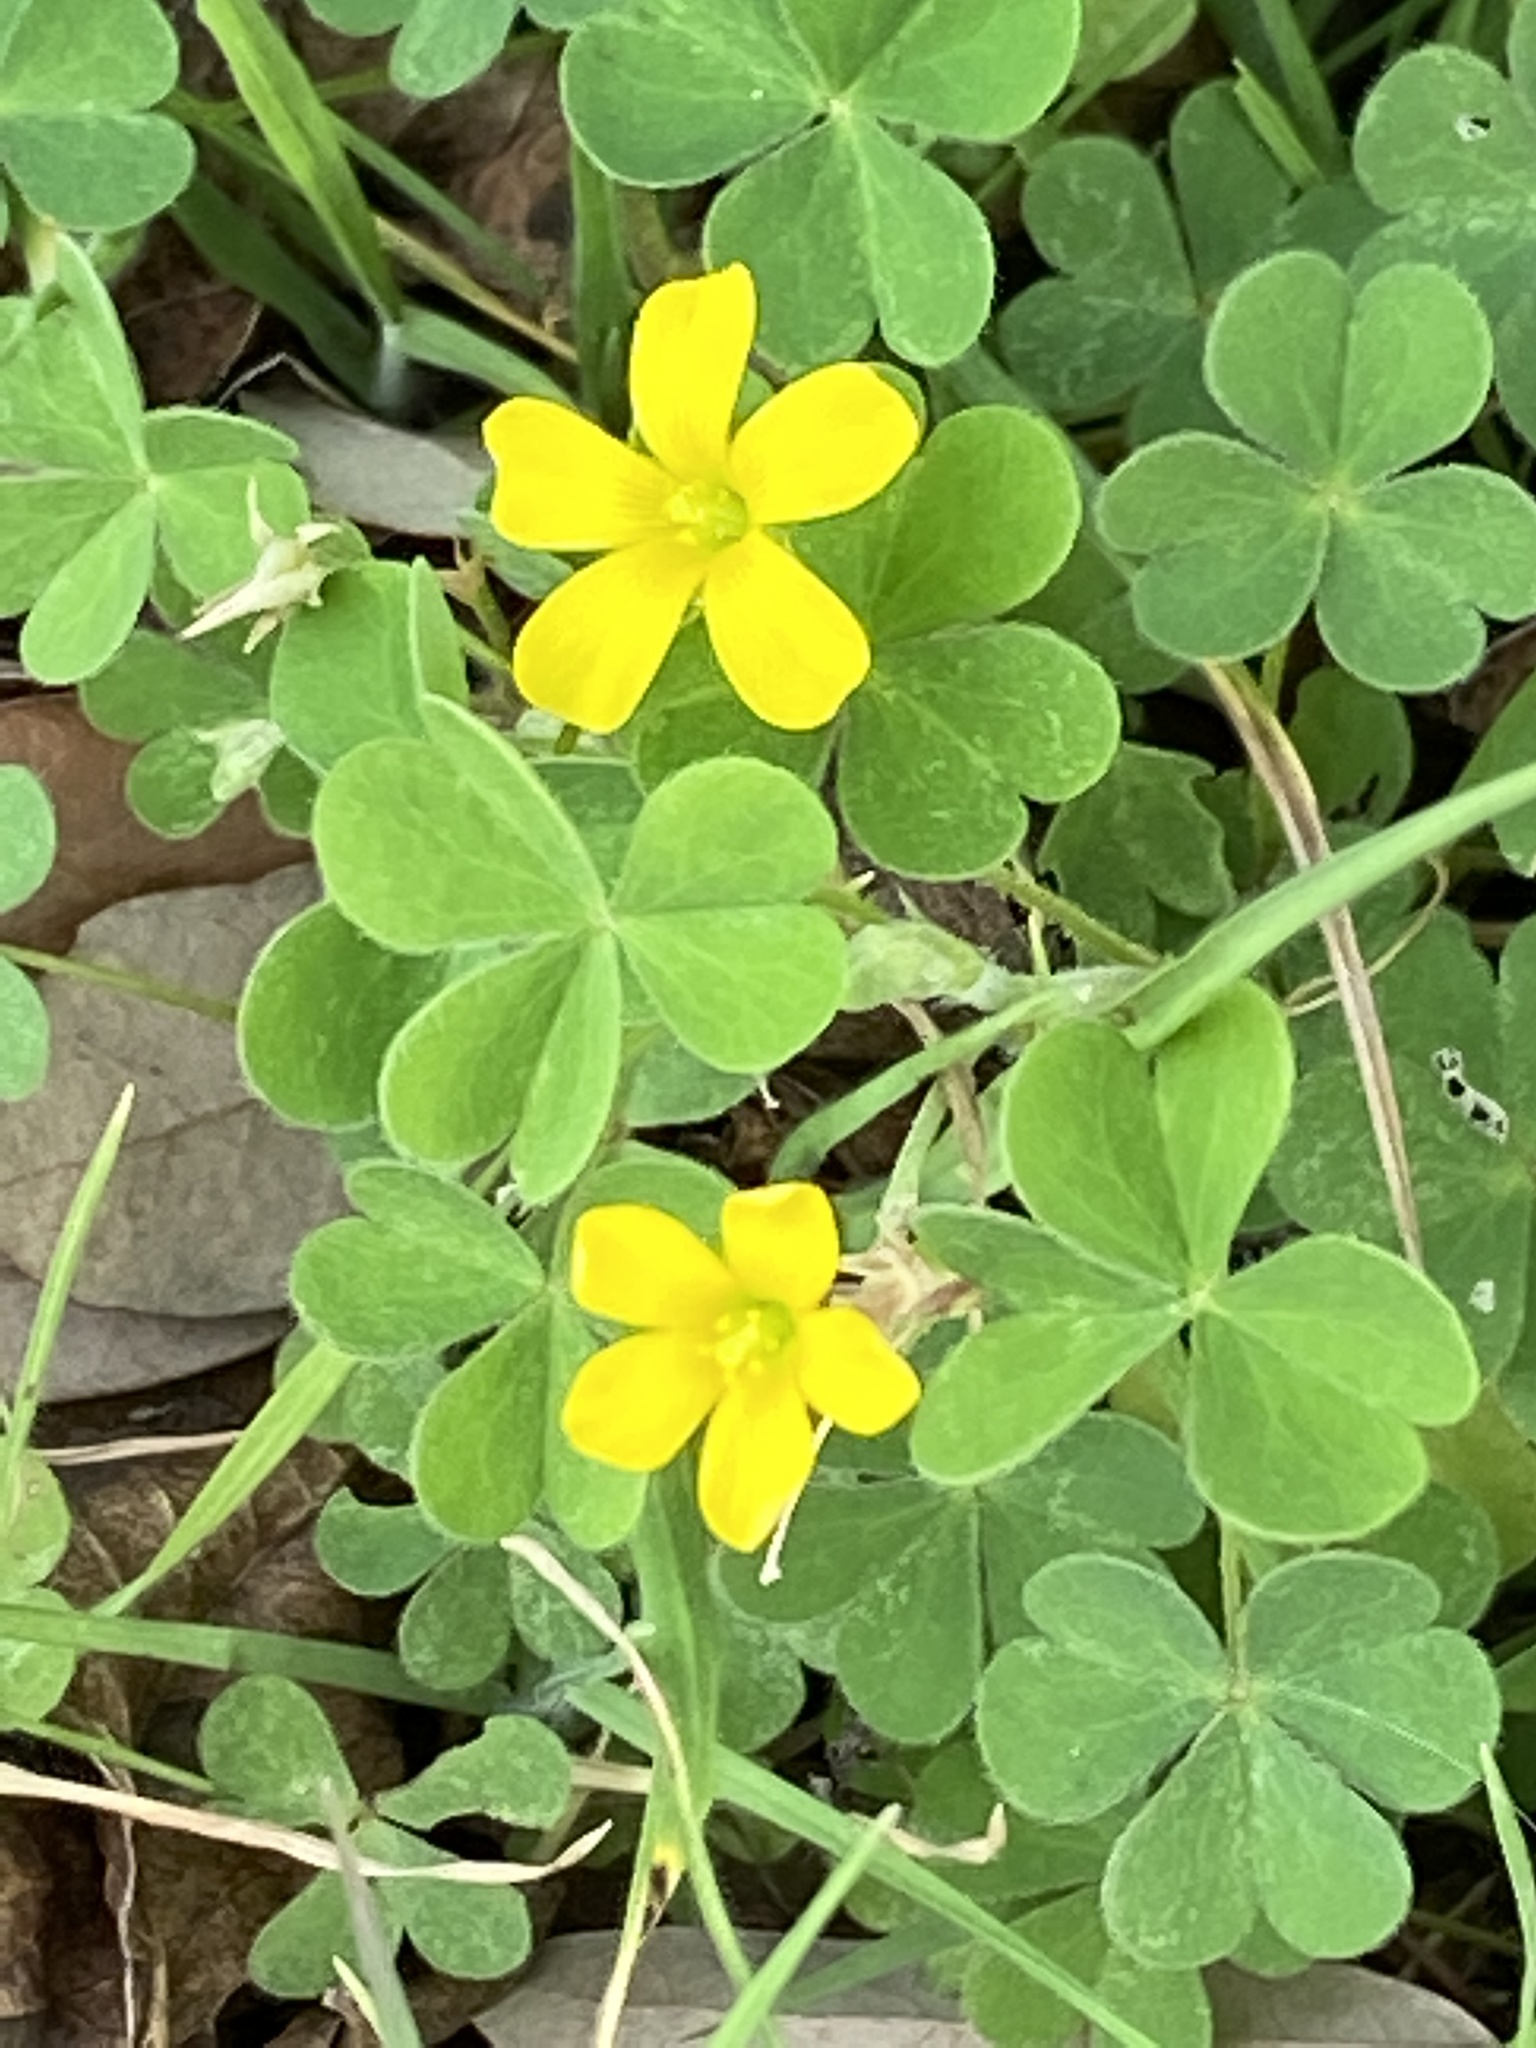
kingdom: Plantae
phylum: Tracheophyta
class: Magnoliopsida
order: Oxalidales
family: Oxalidaceae
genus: Oxalis
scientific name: Oxalis corniculata
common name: Procumbent yellow-sorrel
